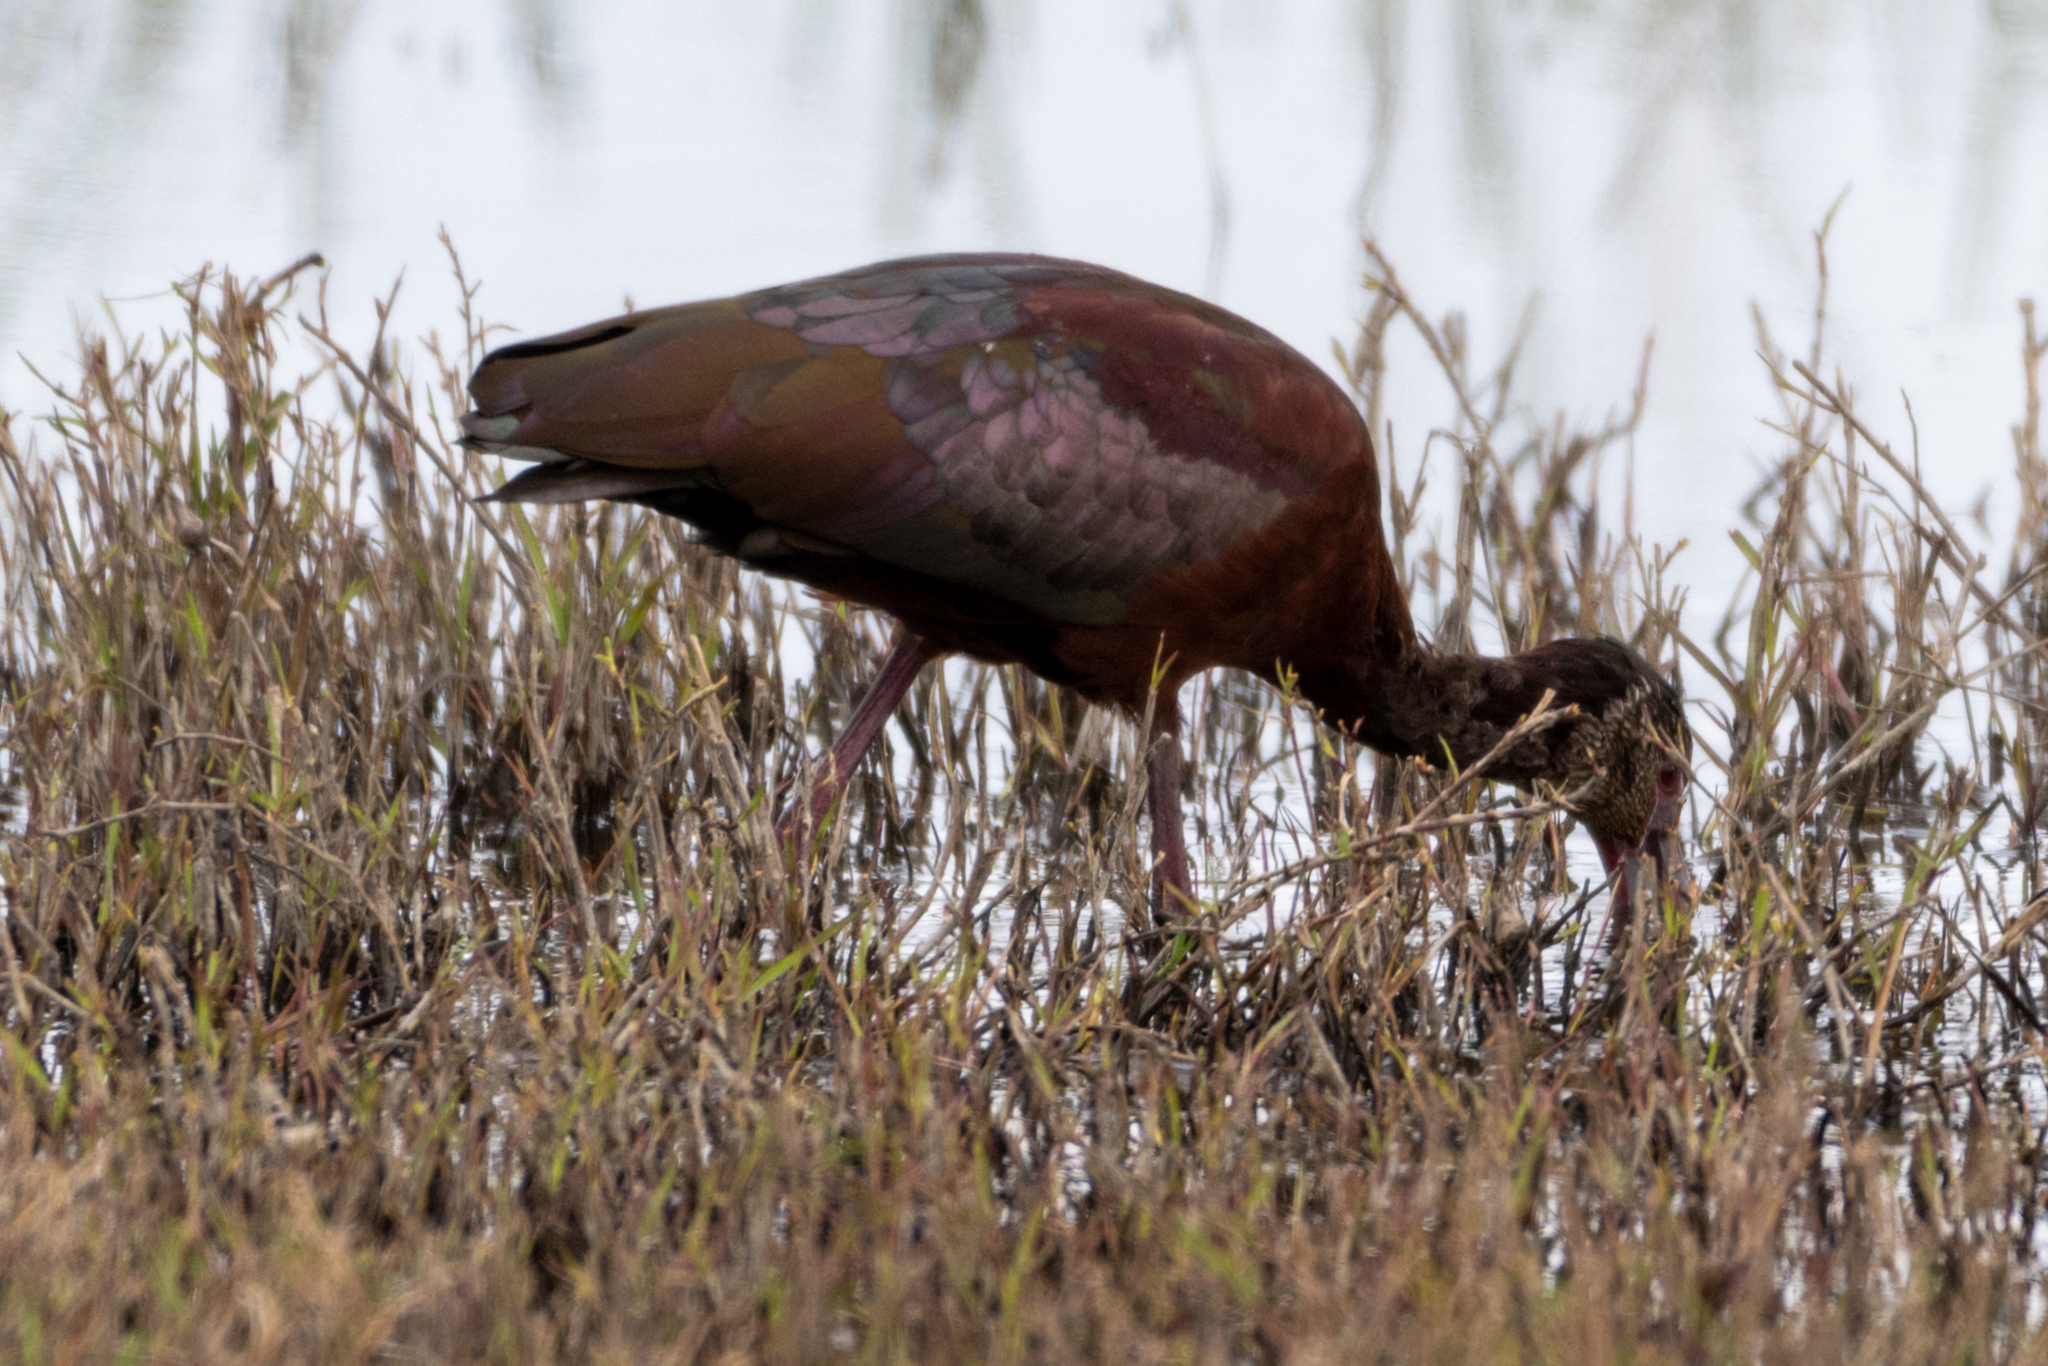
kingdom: Animalia
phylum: Chordata
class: Aves
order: Pelecaniformes
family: Threskiornithidae
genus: Plegadis
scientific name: Plegadis chihi
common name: White-faced ibis
